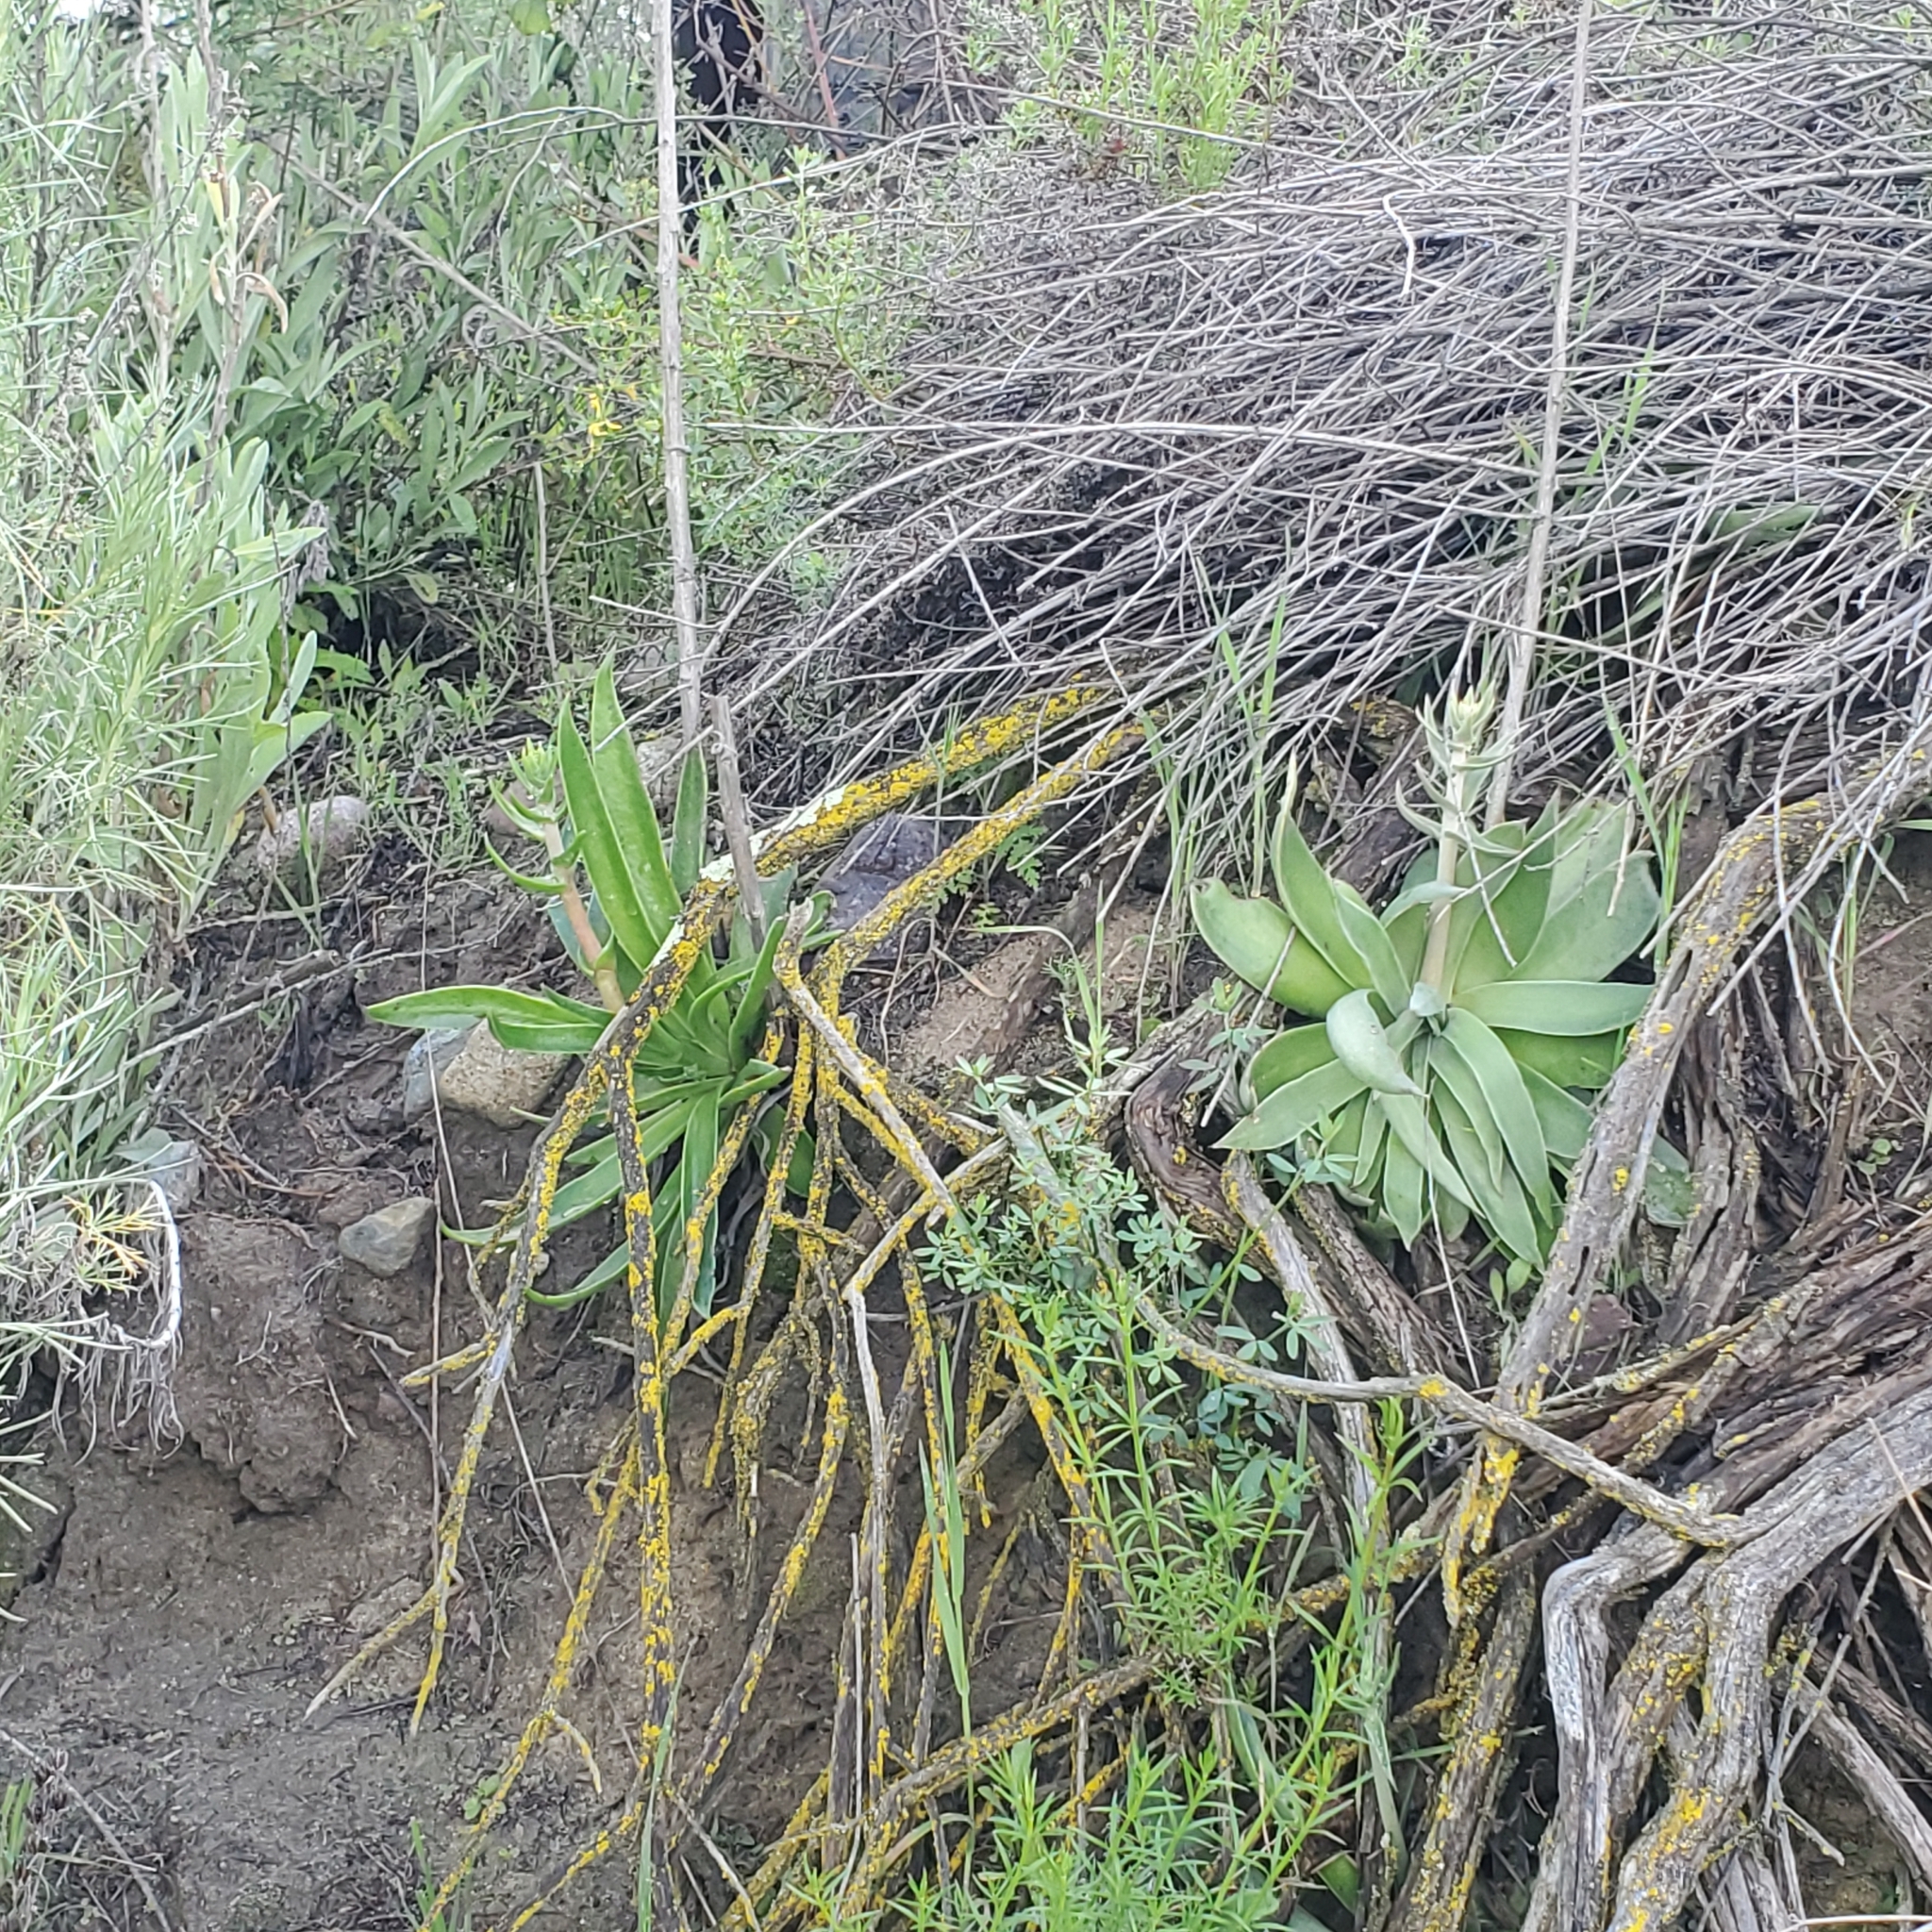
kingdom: Plantae
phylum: Tracheophyta
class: Magnoliopsida
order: Saxifragales
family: Crassulaceae
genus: Dudleya
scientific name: Dudleya lanceolata
